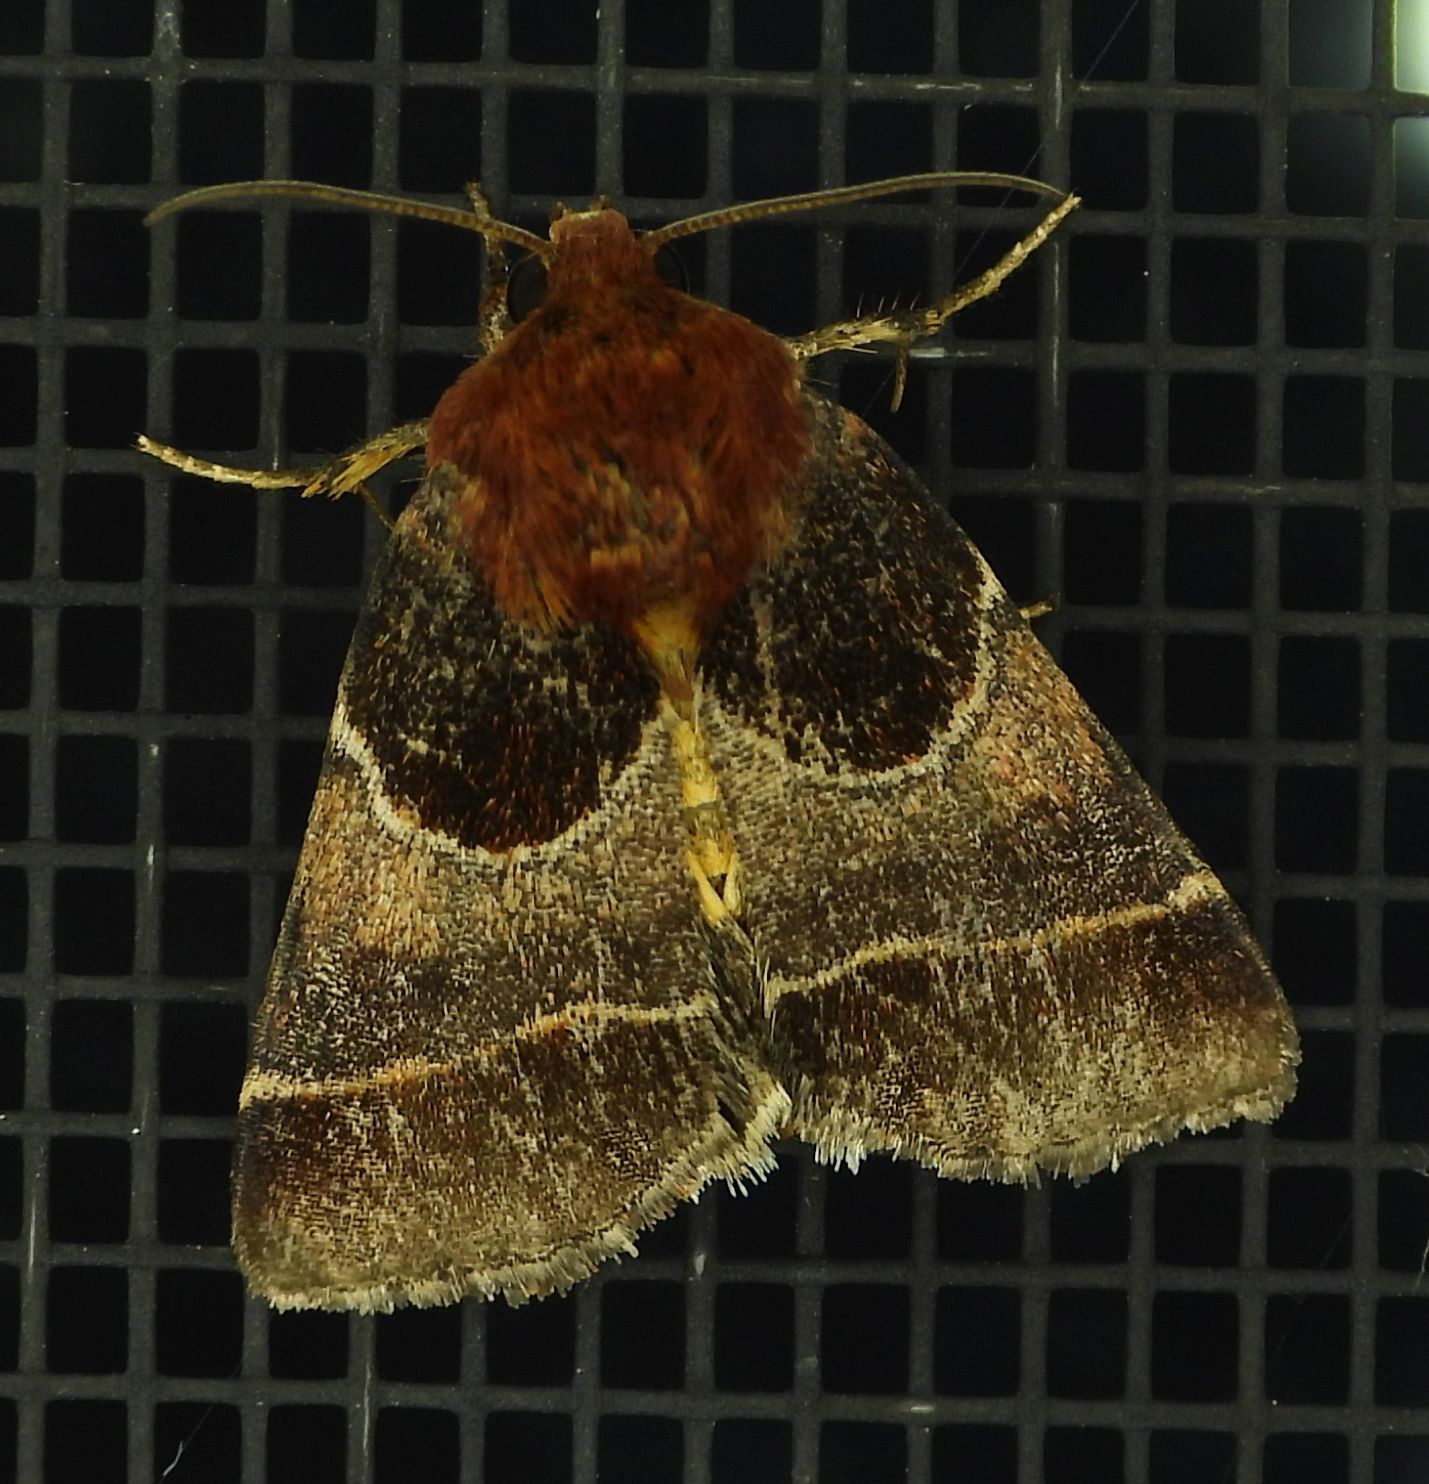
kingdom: Animalia
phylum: Arthropoda
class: Insecta
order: Lepidoptera
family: Noctuidae
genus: Schinia
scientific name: Schinia arcigera
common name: Arcigera flower moth
